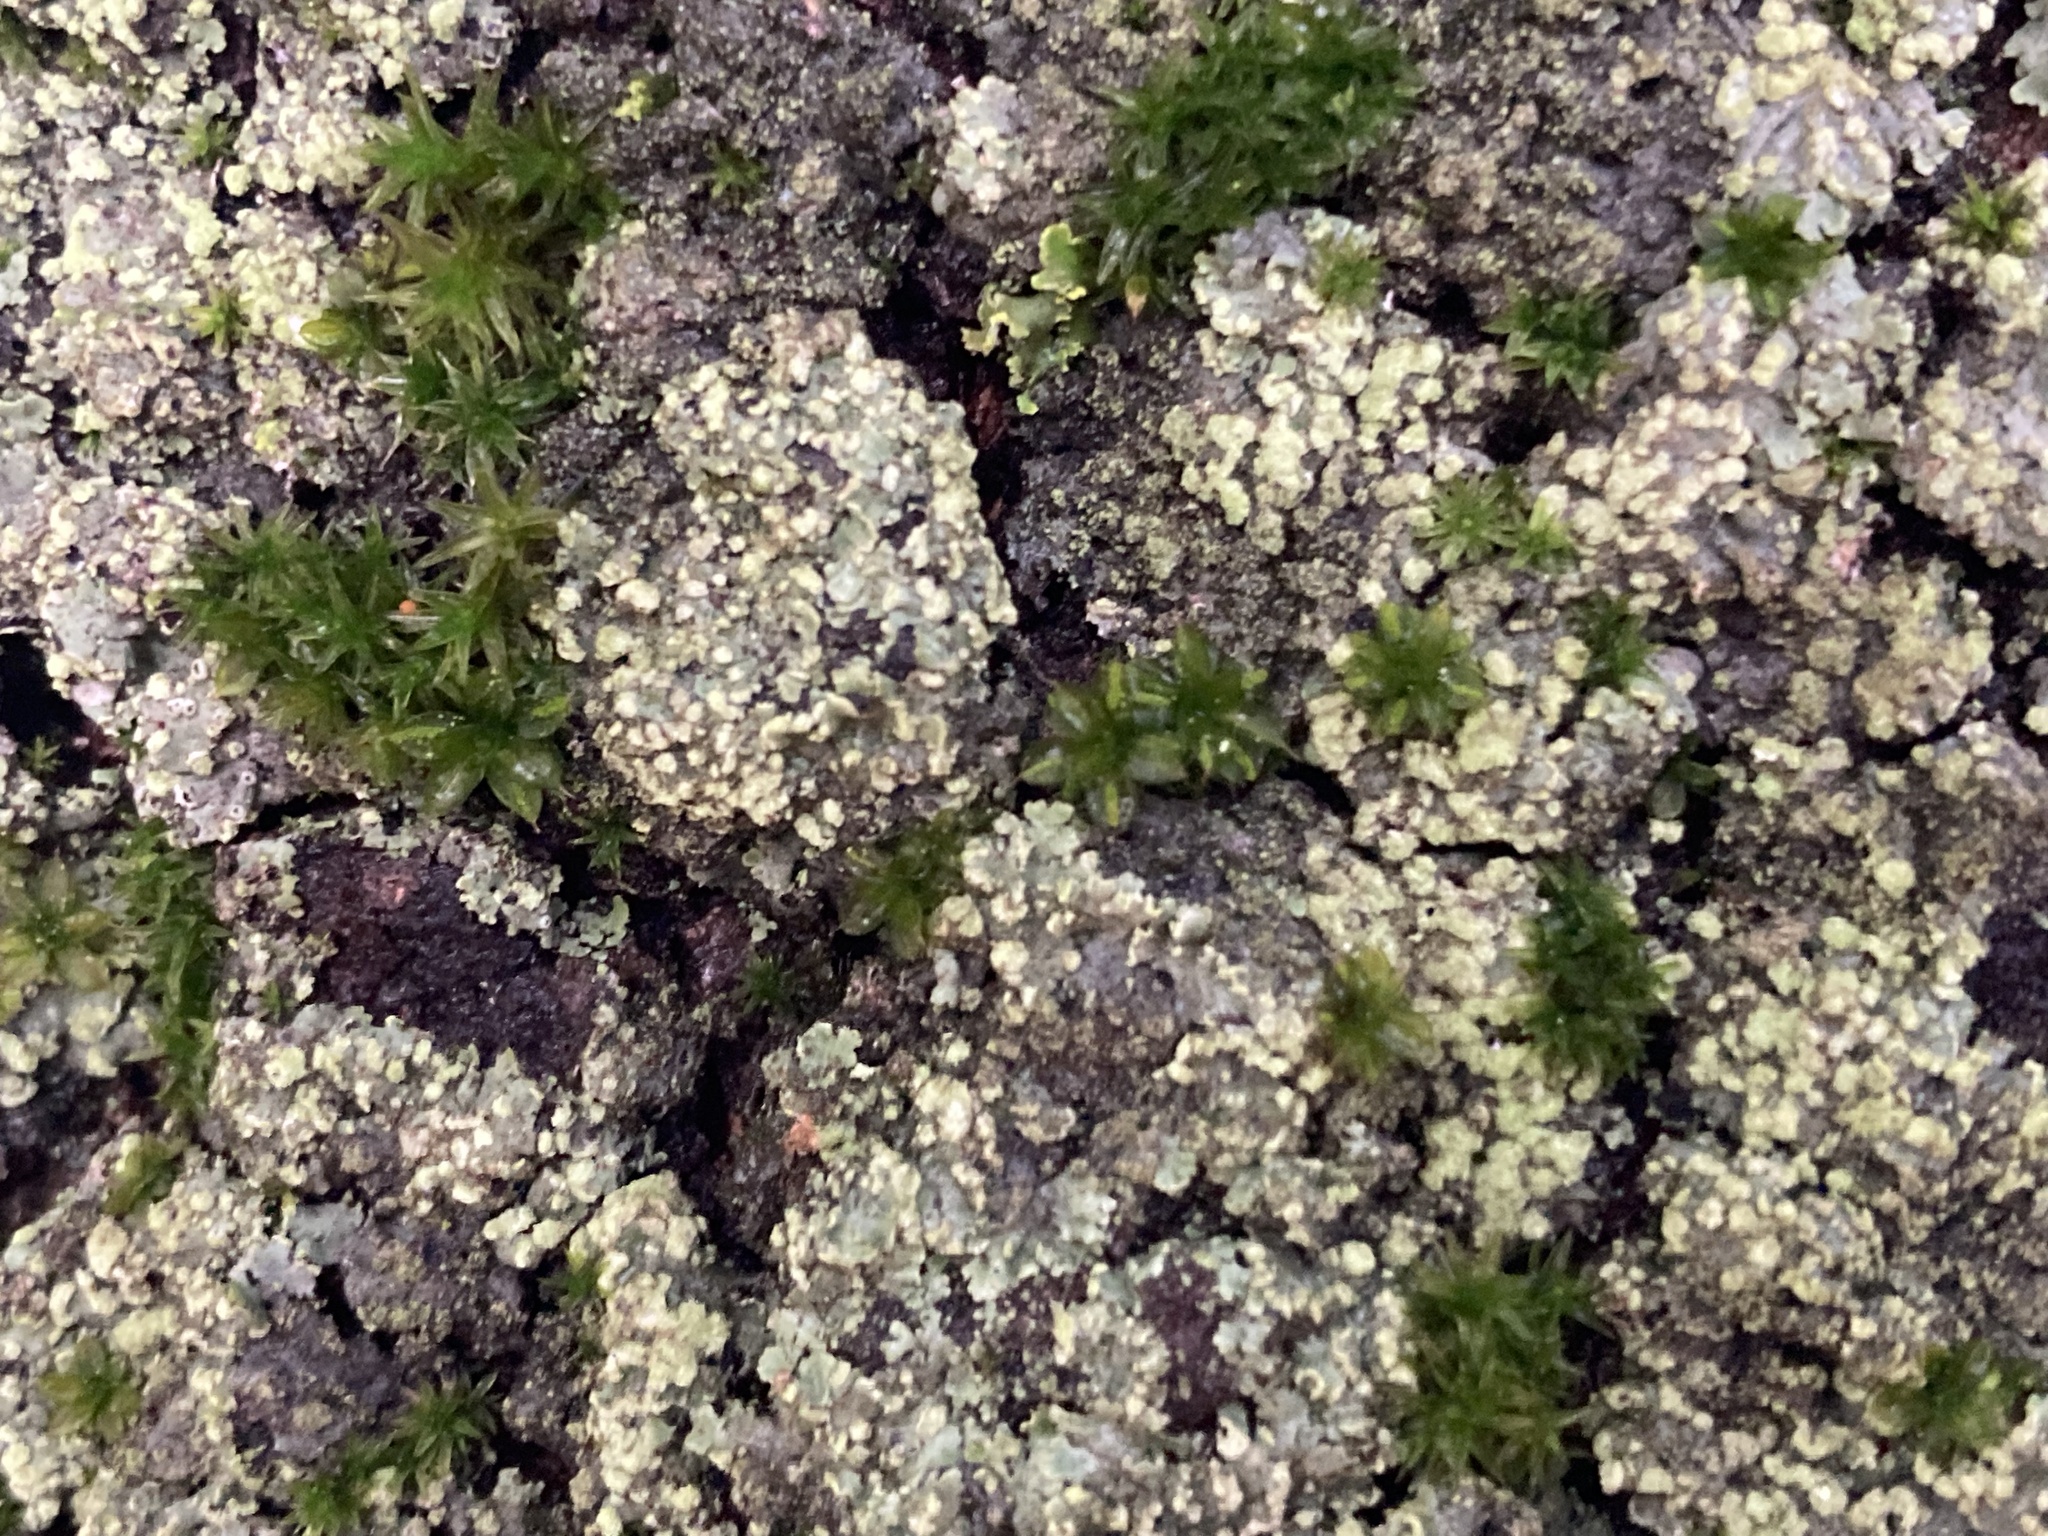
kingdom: Plantae
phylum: Bryophyta
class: Bryopsida
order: Pottiales
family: Pottiaceae
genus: Syntrichia
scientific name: Syntrichia papillosa
